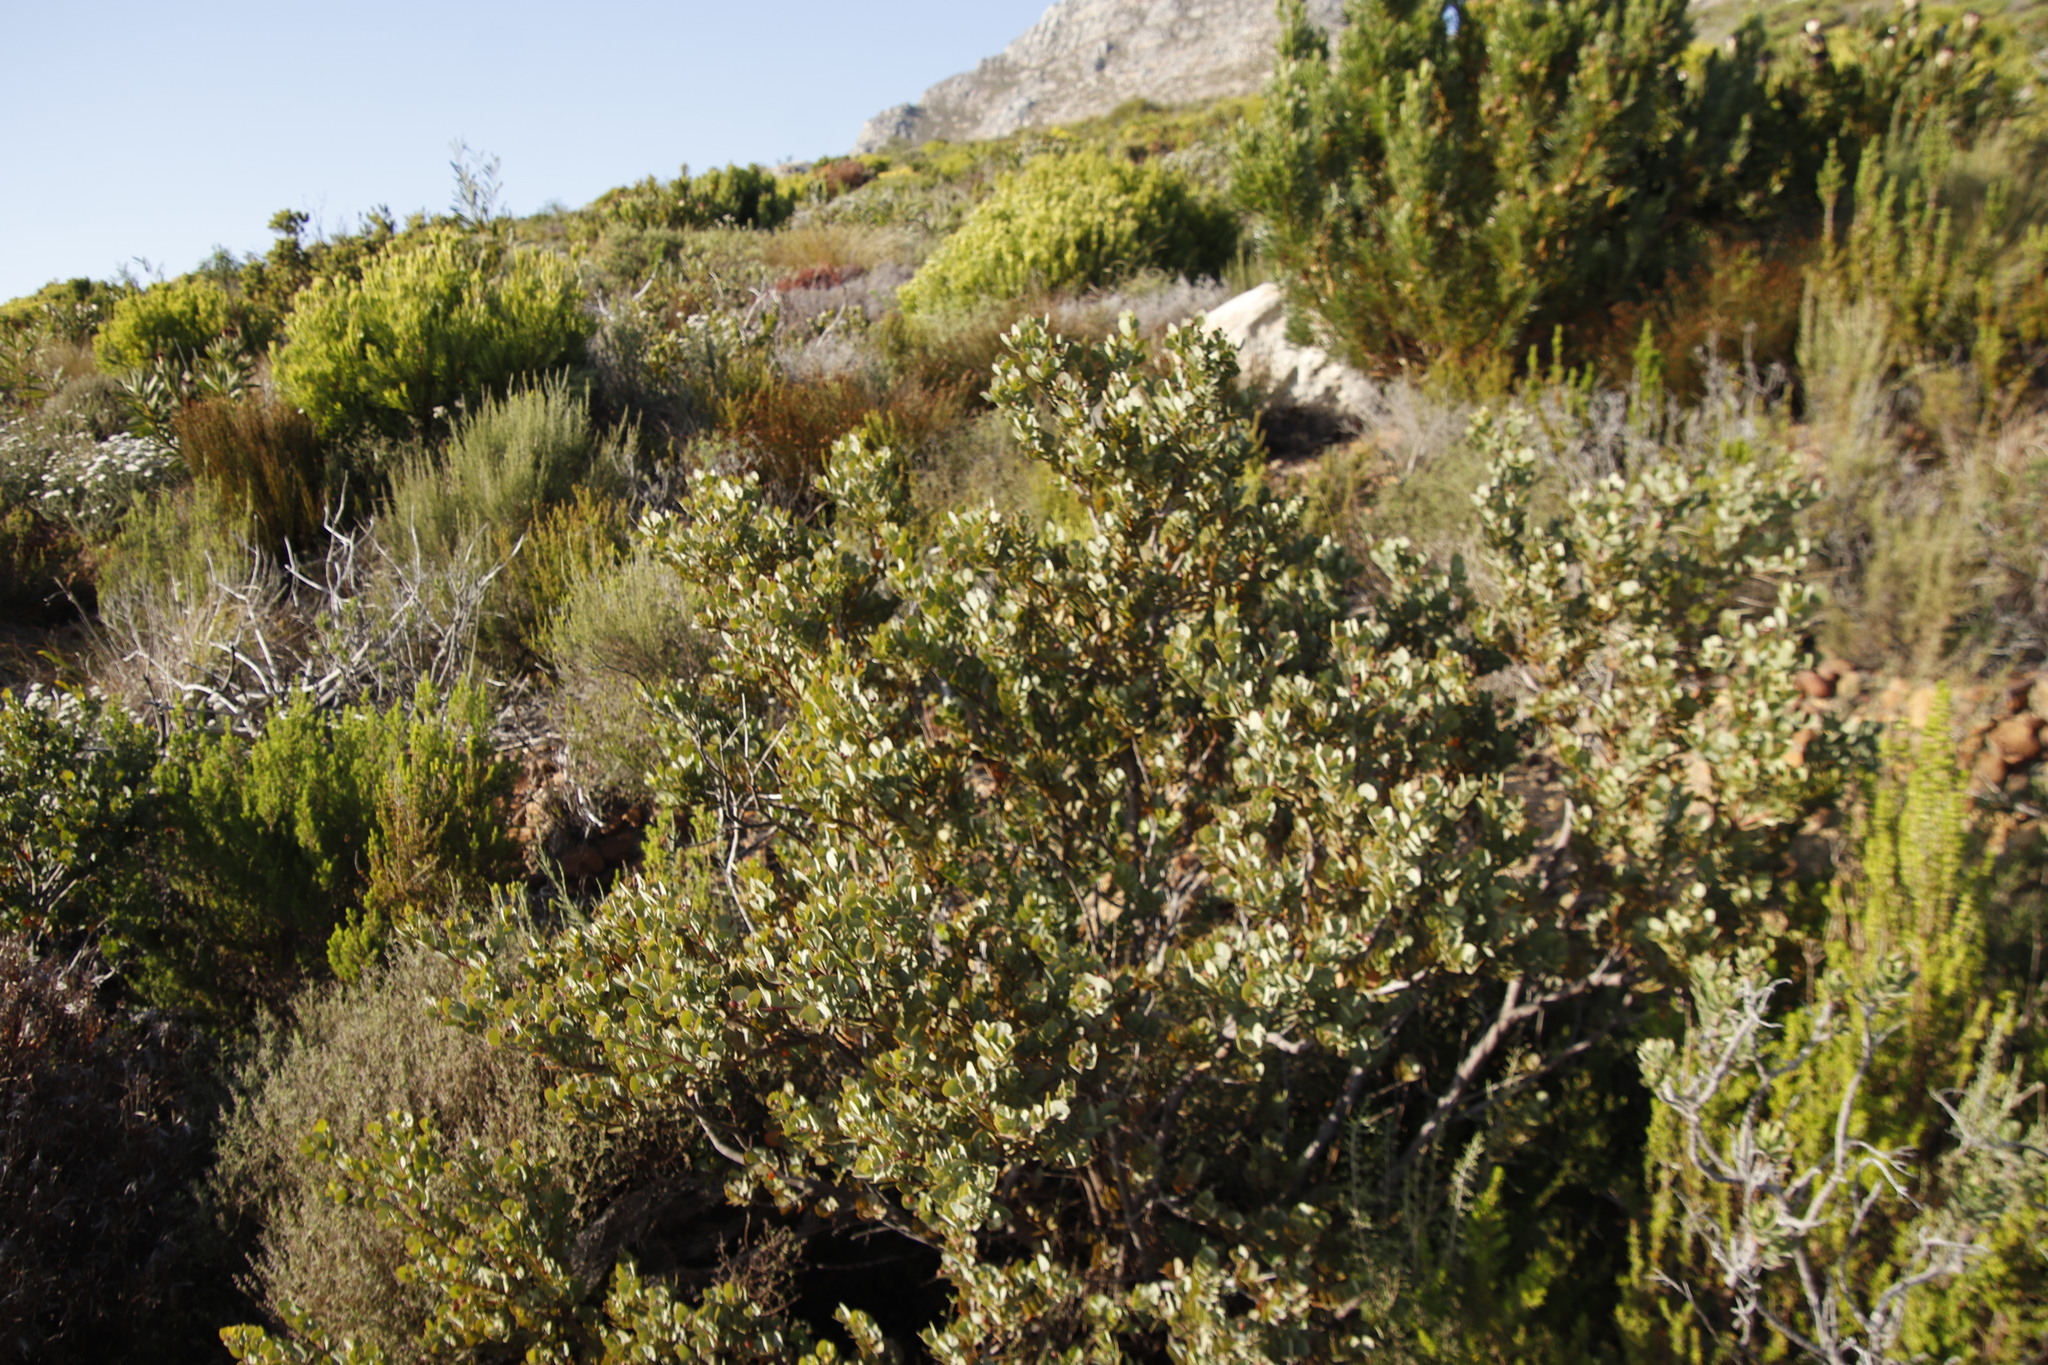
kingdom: Plantae
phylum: Tracheophyta
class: Magnoliopsida
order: Santalales
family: Santalaceae
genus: Osyris
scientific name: Osyris compressa
